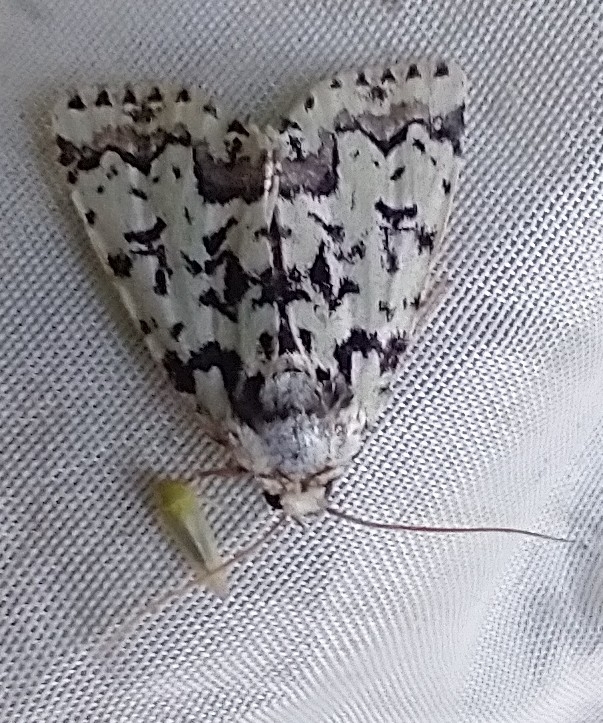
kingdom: Animalia
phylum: Arthropoda
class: Insecta
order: Lepidoptera
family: Noctuidae
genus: Moma
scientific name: Moma alpium
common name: Scarce merveille du jour
